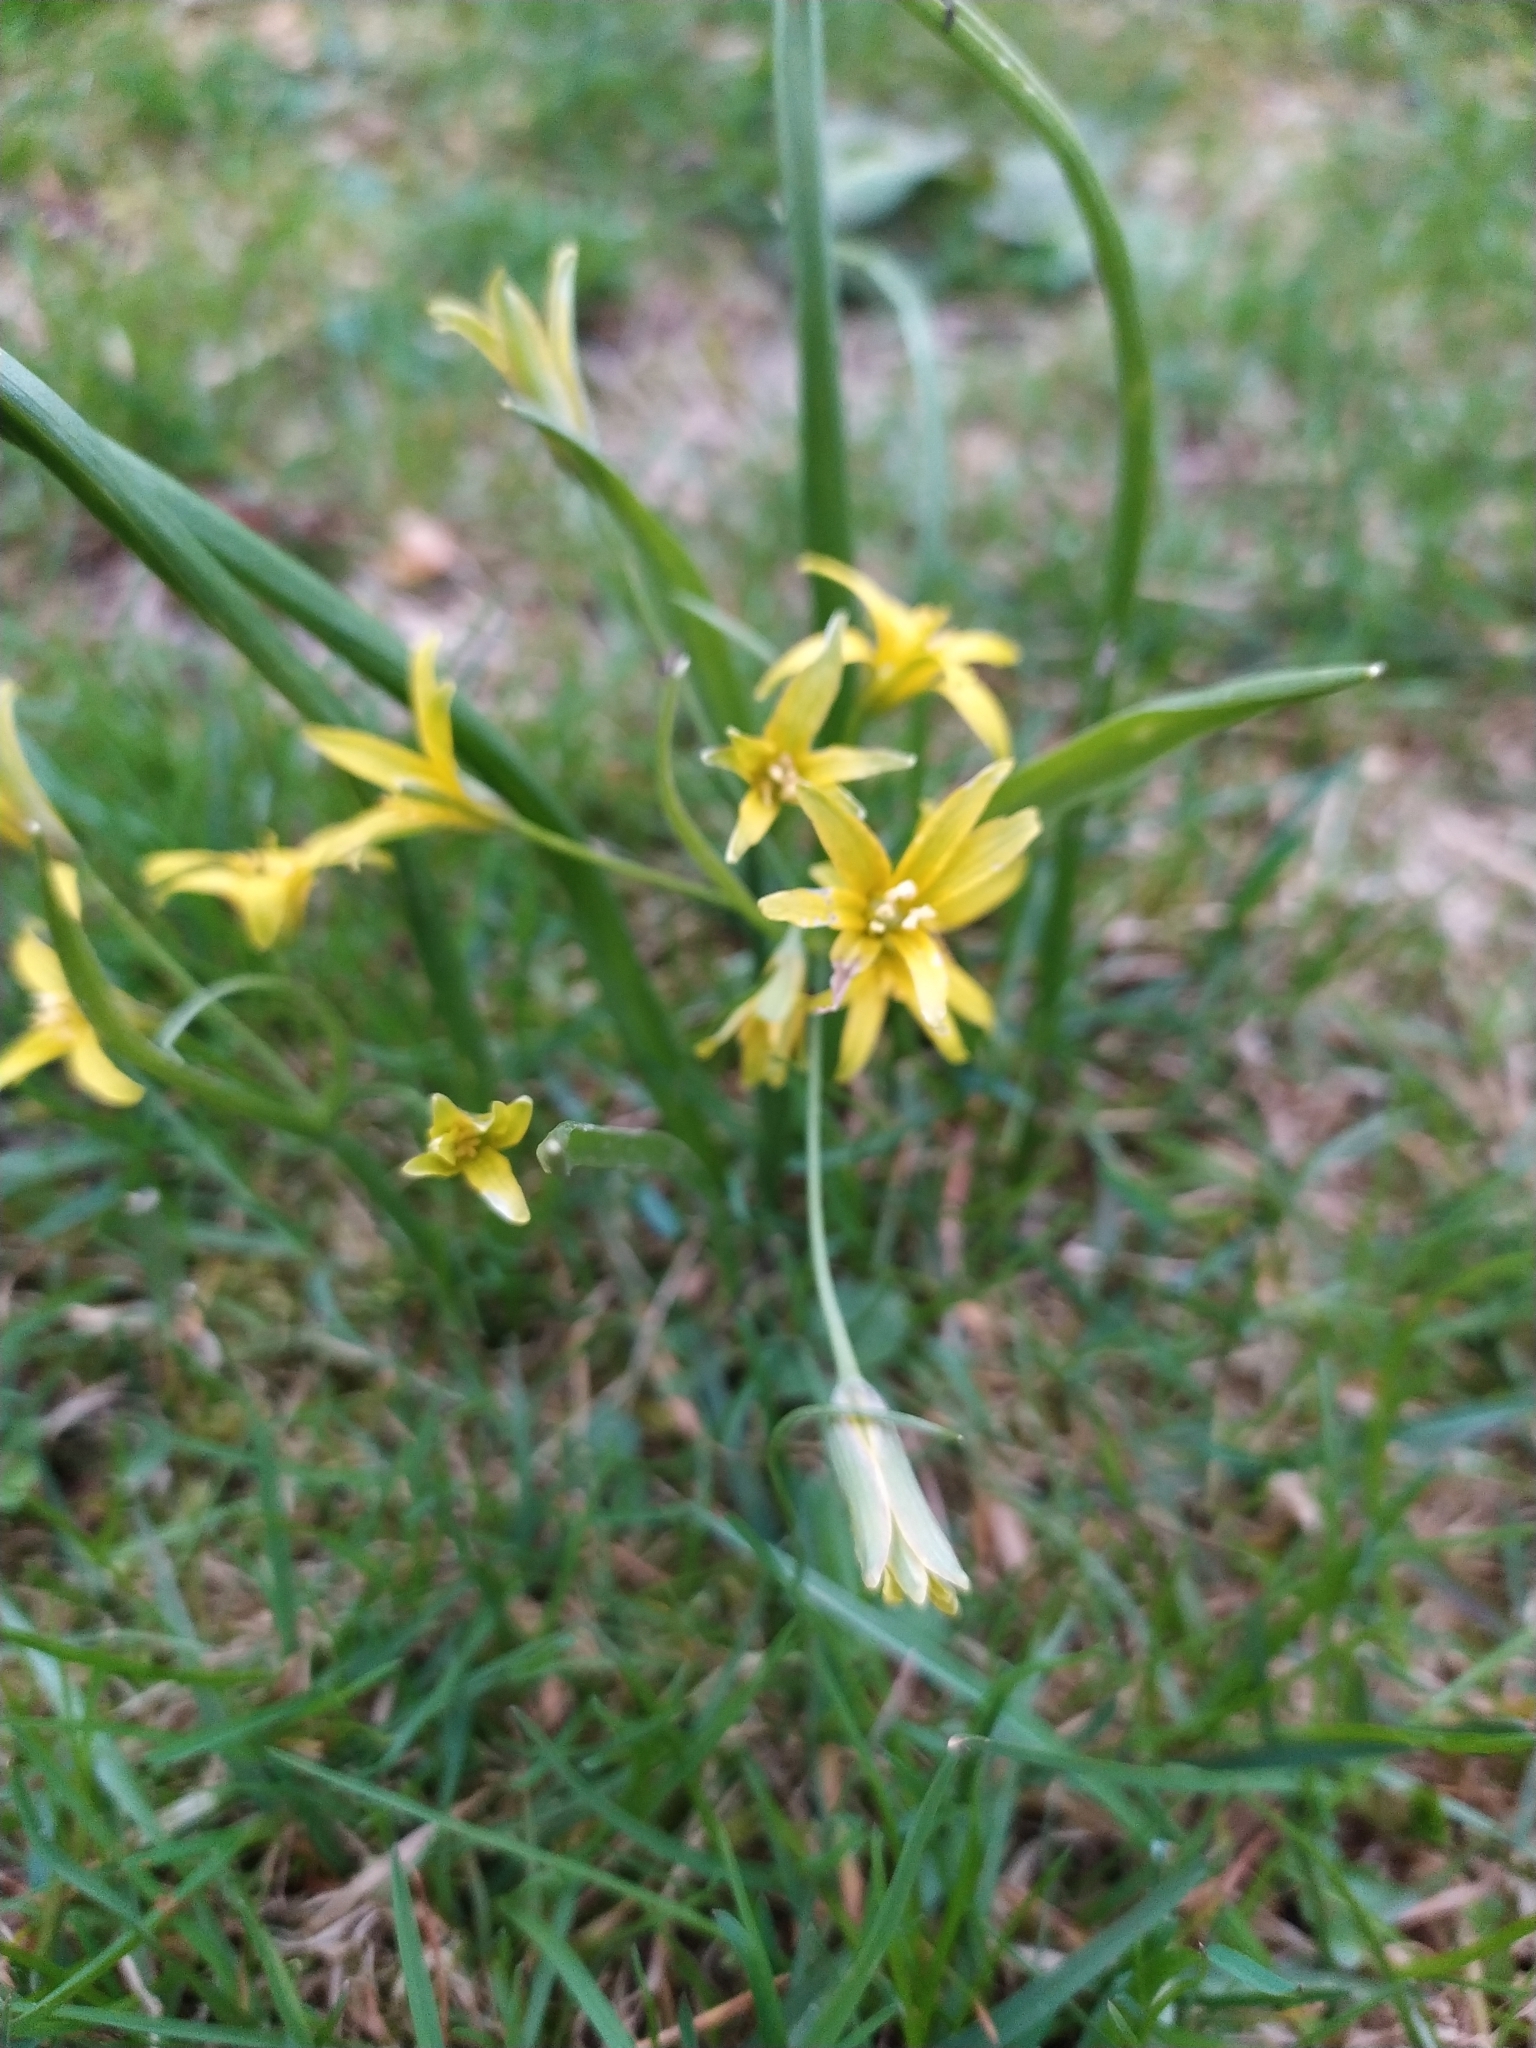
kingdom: Plantae
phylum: Tracheophyta
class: Liliopsida
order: Liliales
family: Liliaceae
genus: Gagea
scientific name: Gagea lutea
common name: Yellow star-of-bethlehem
